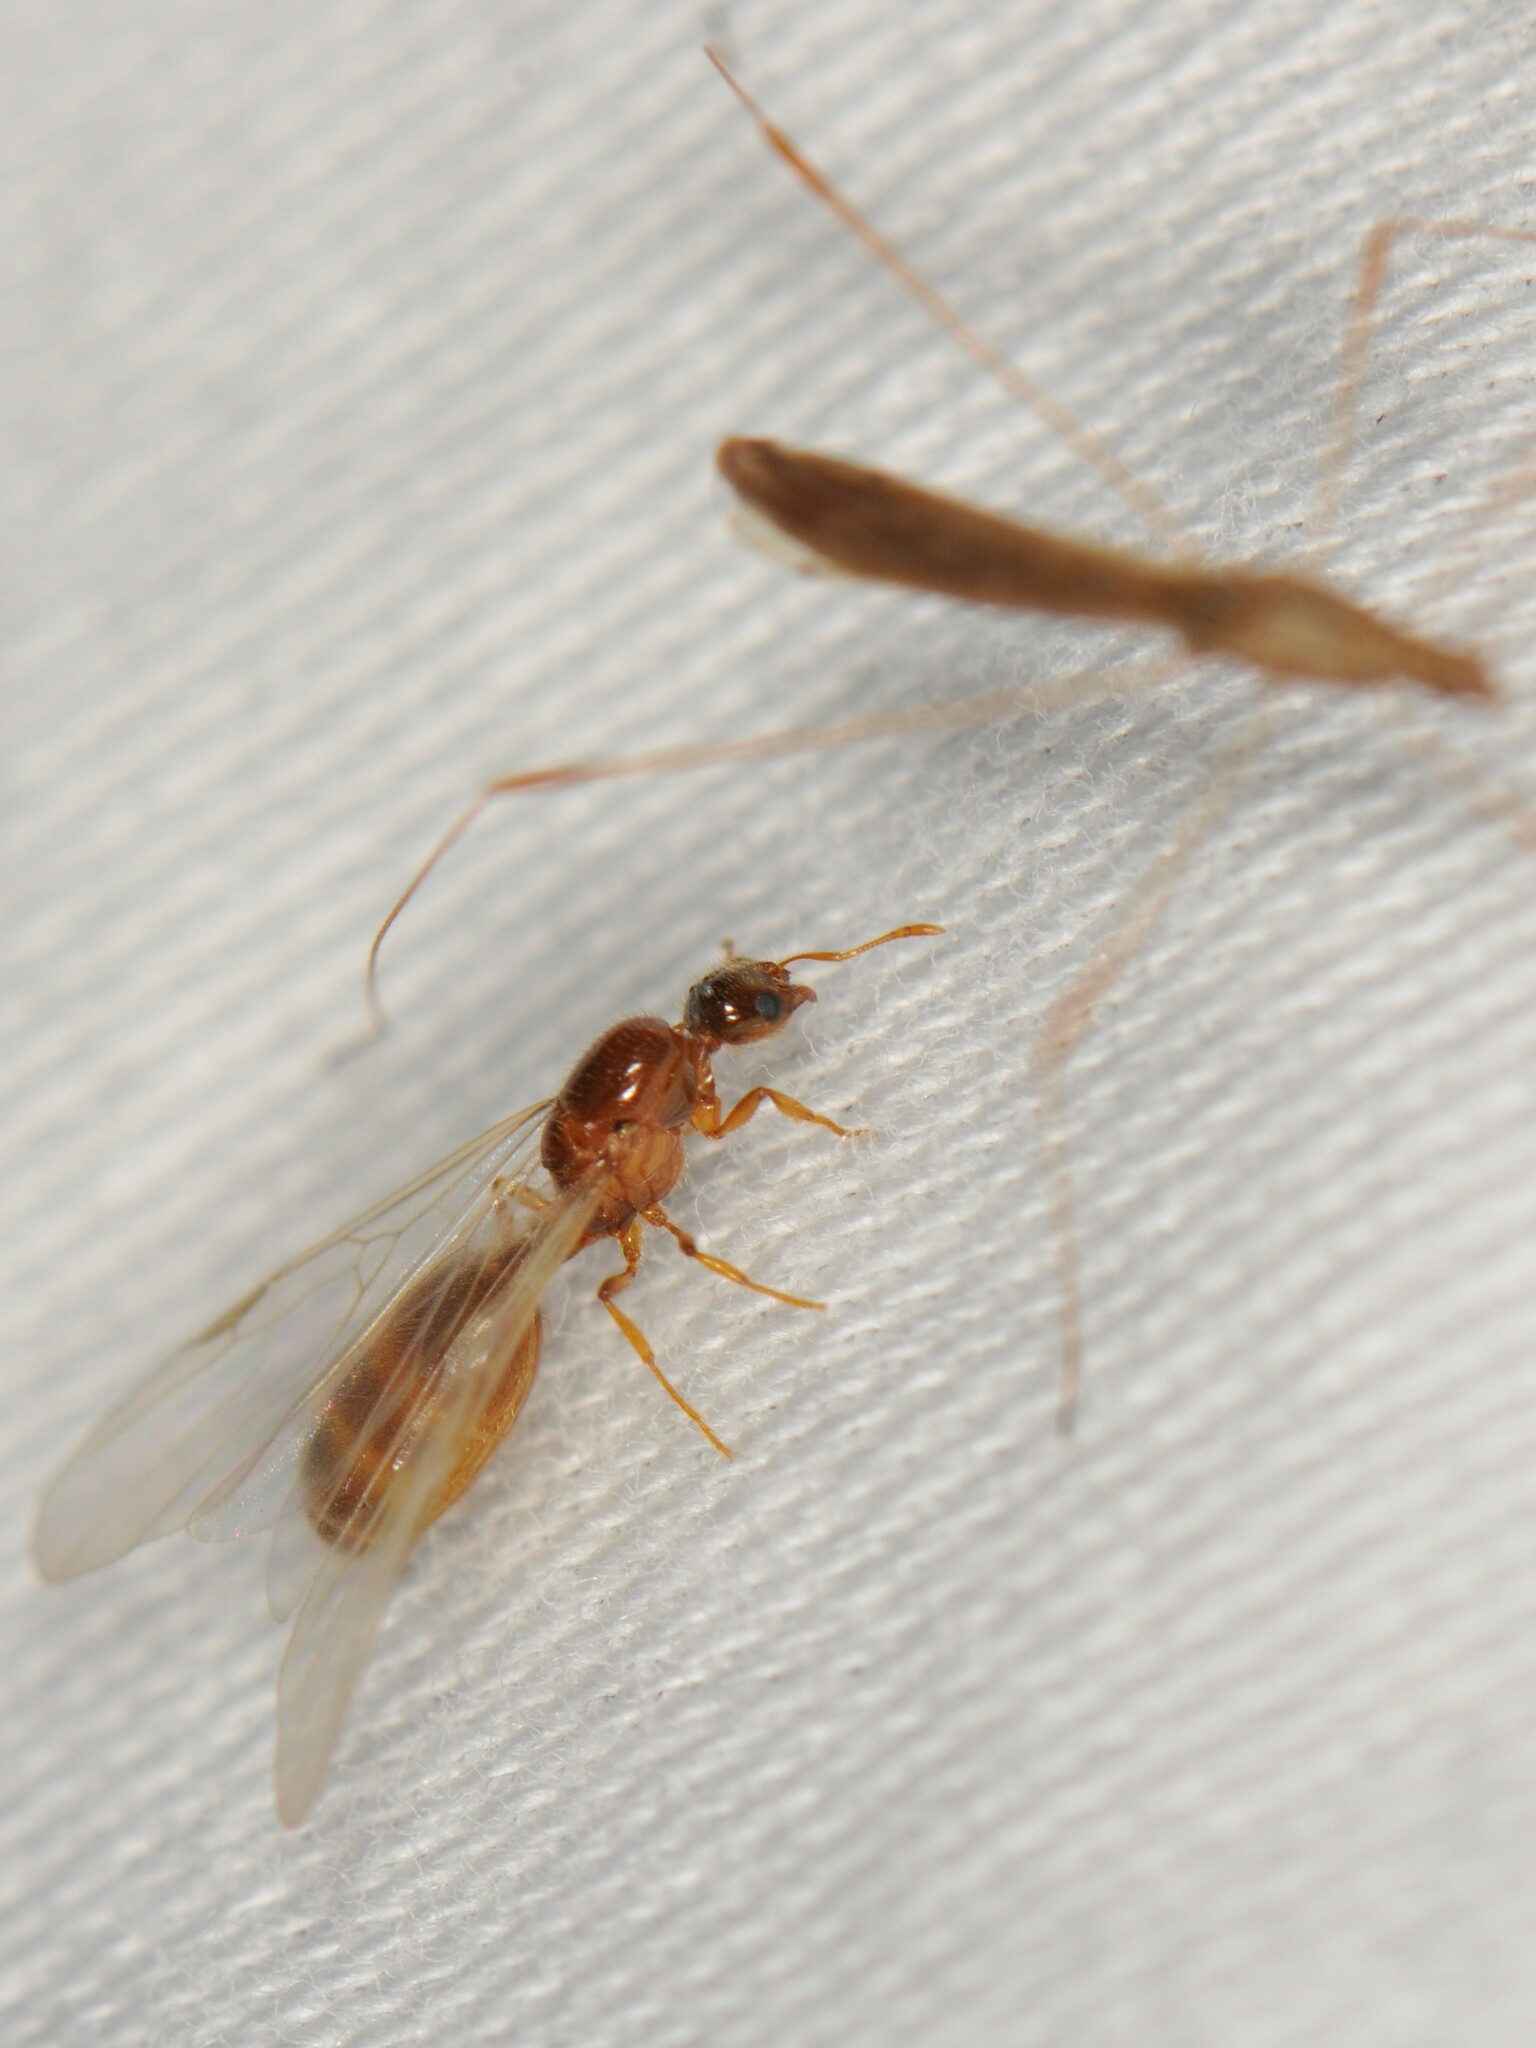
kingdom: Animalia
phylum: Arthropoda
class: Insecta
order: Hymenoptera
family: Formicidae
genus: Solenopsis
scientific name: Solenopsis
